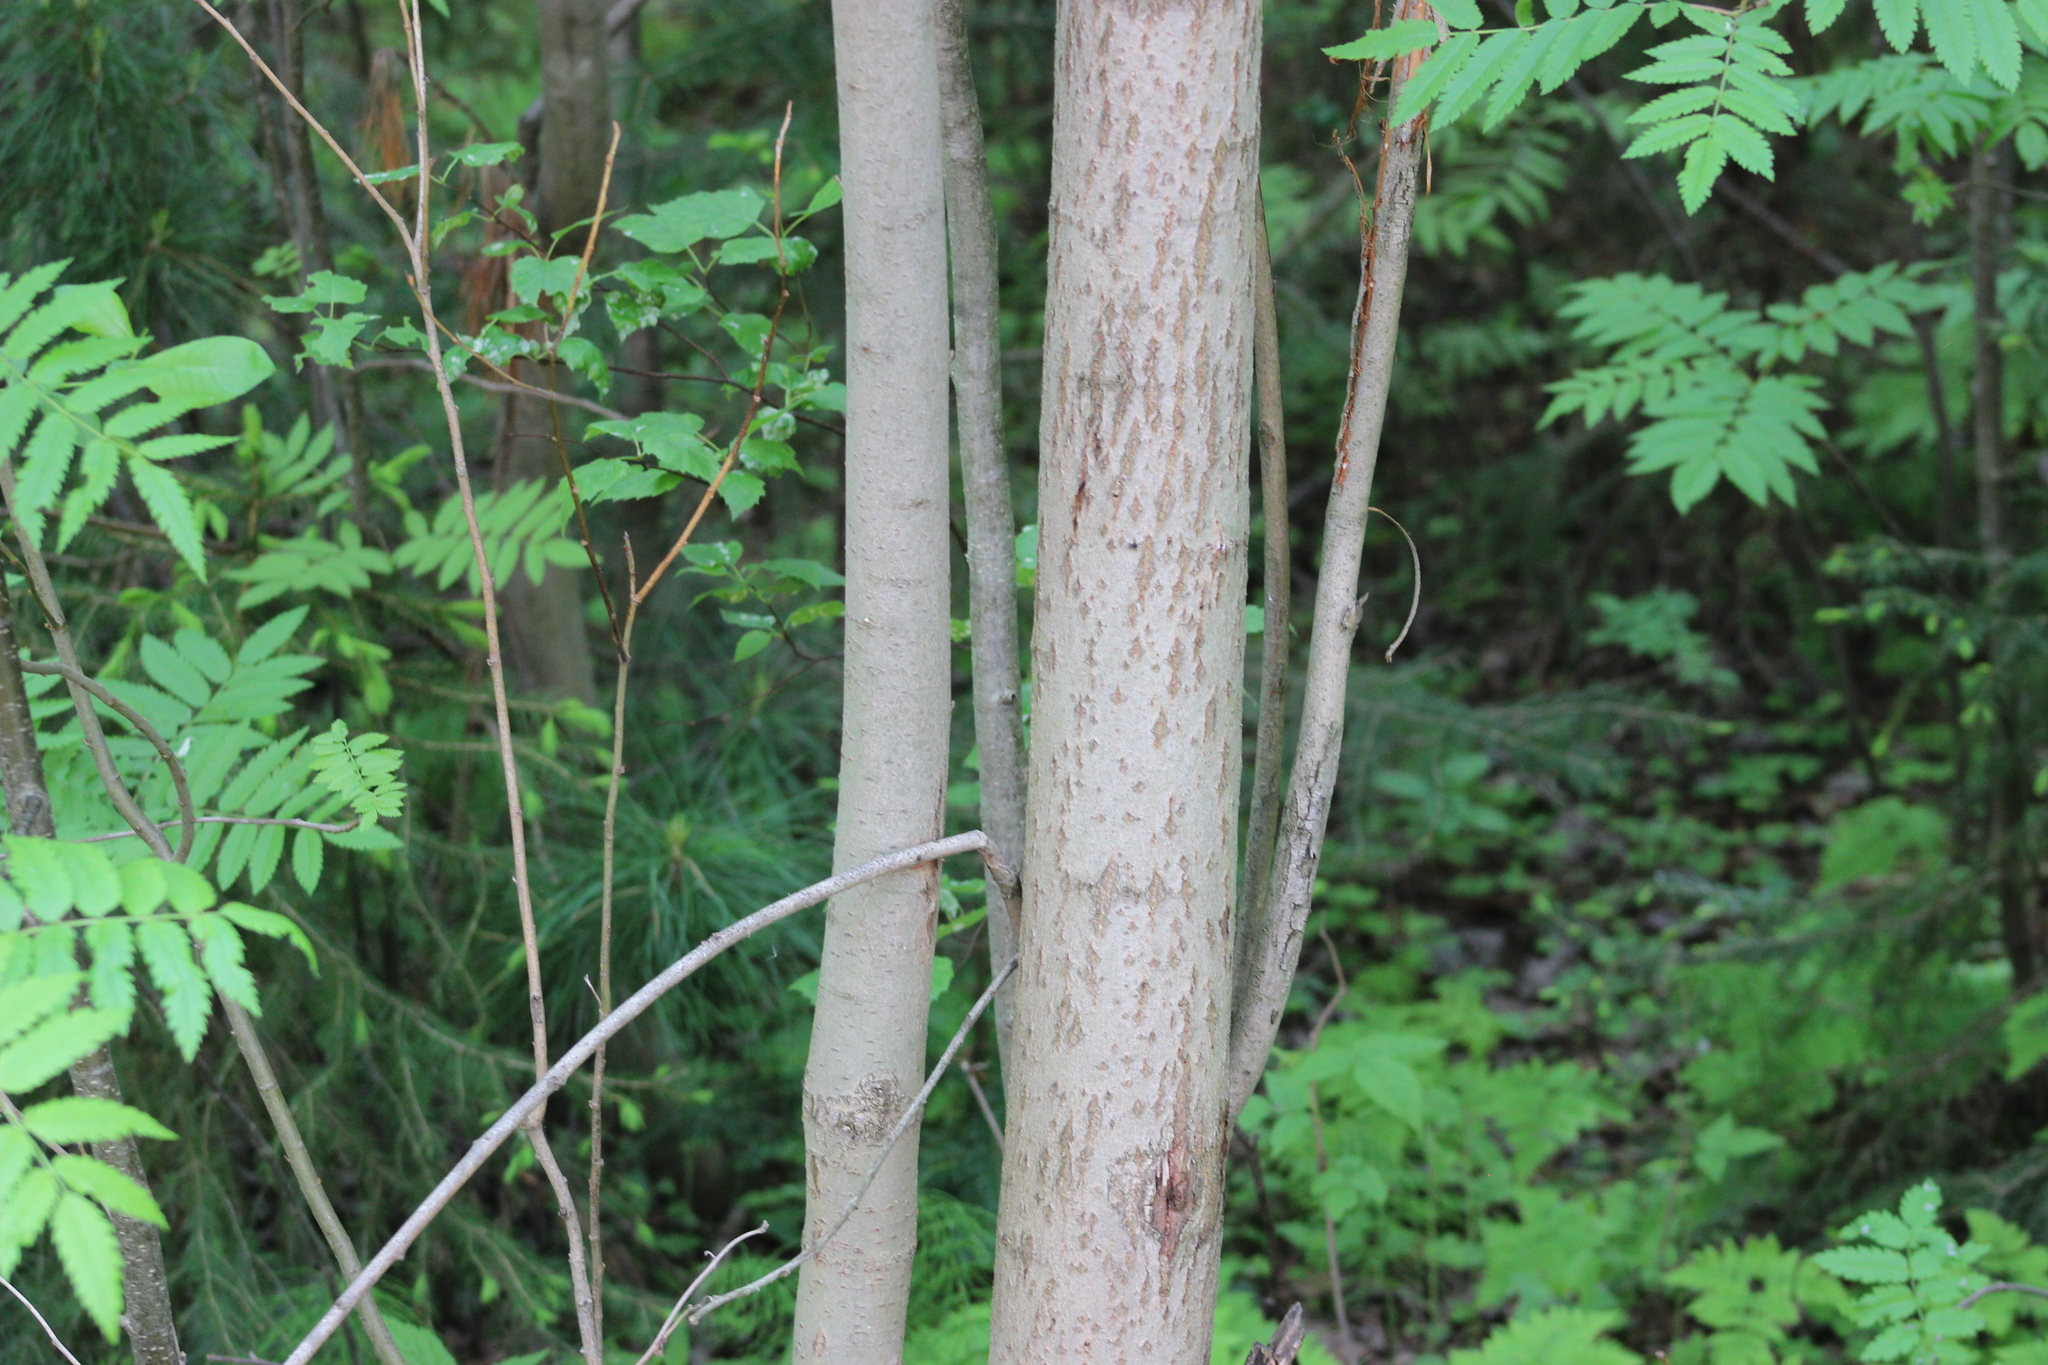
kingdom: Plantae
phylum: Tracheophyta
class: Magnoliopsida
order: Malpighiales
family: Salicaceae
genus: Salix
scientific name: Salix caprea
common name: Goat willow
